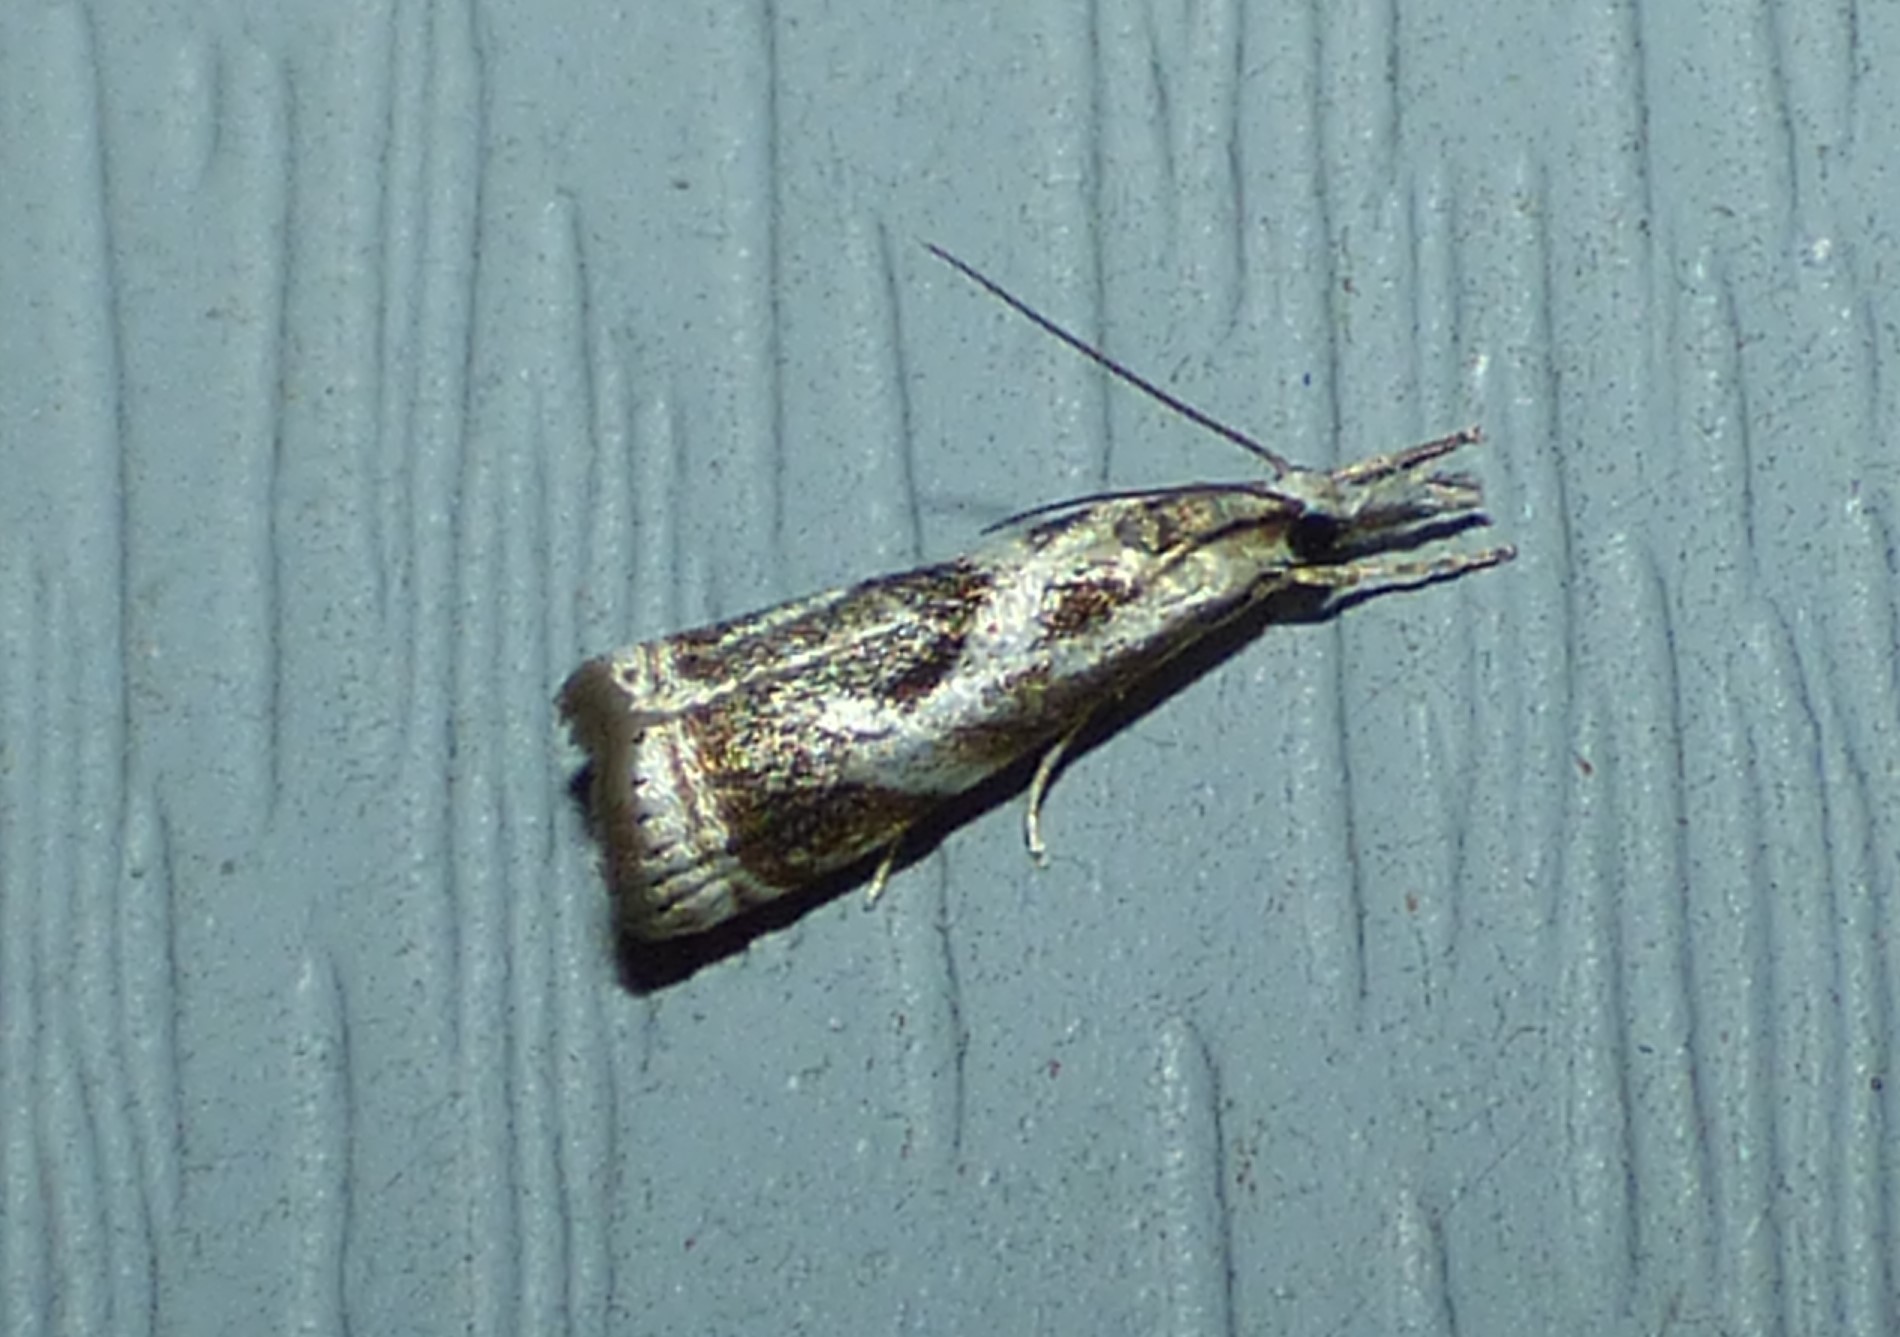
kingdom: Animalia
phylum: Arthropoda
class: Insecta
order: Lepidoptera
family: Crambidae
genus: Microcrambus
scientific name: Microcrambus elegans
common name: Elegant grass-veneer
